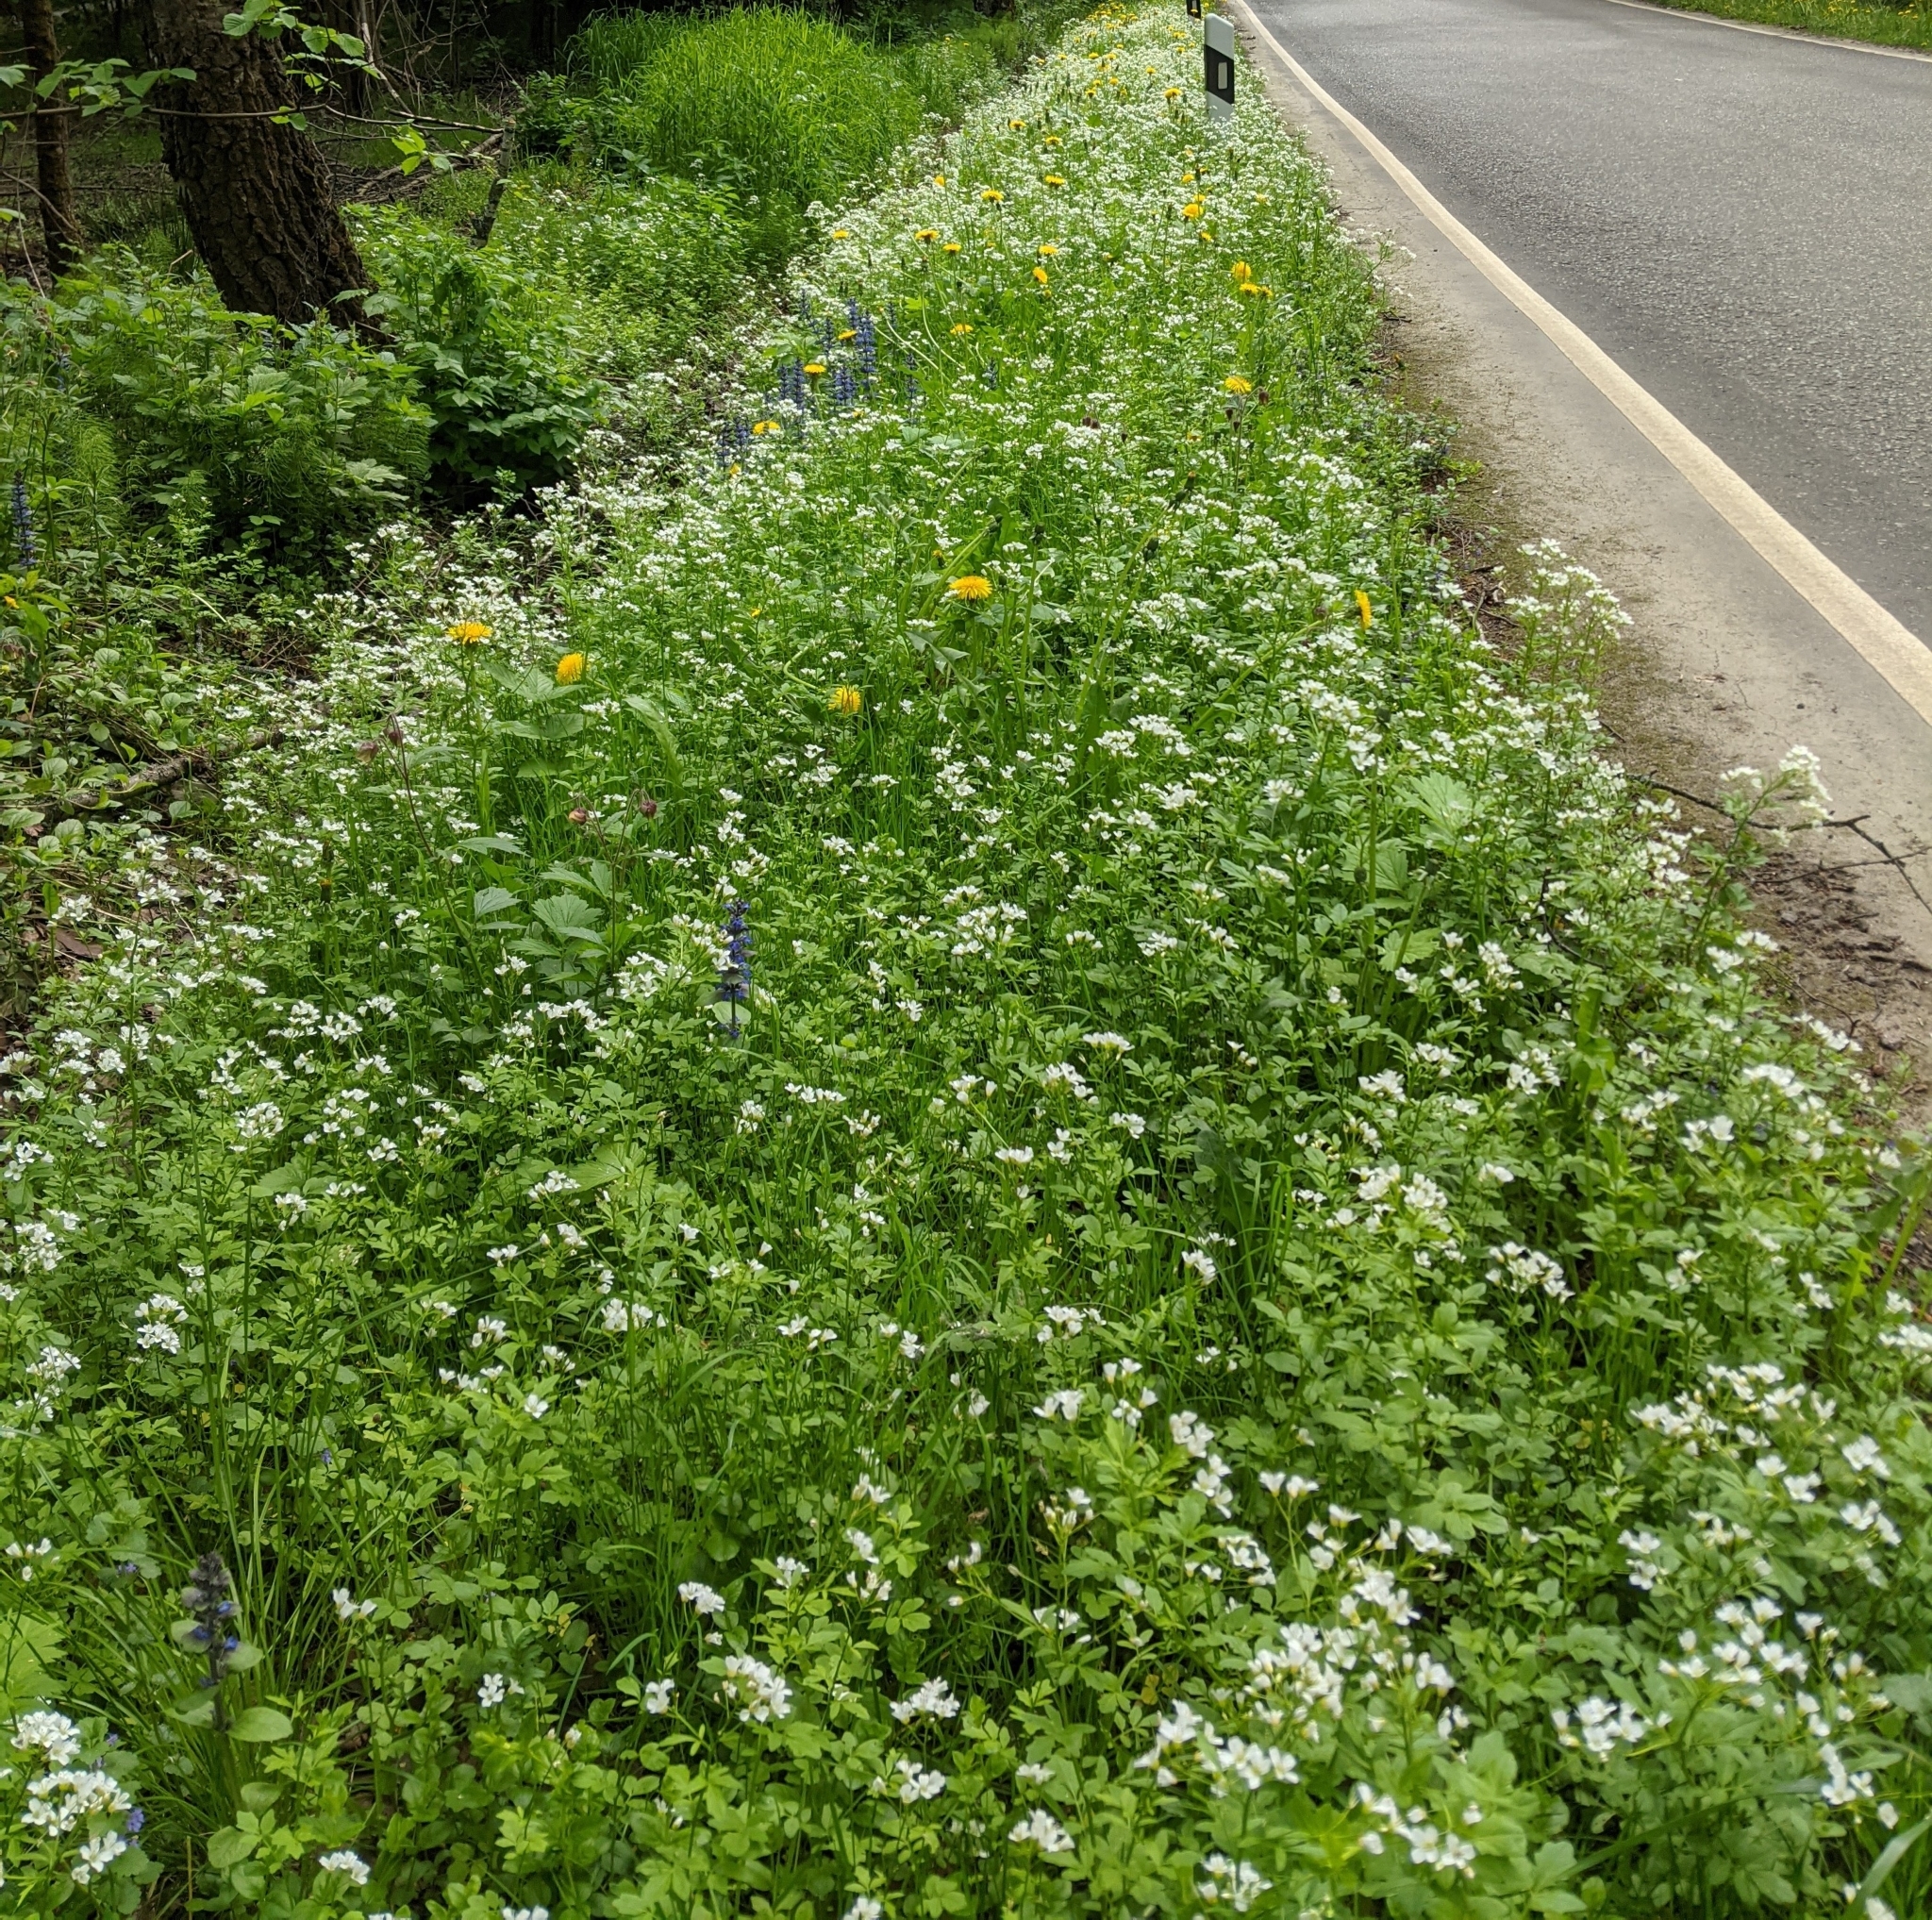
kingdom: Plantae
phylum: Tracheophyta
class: Magnoliopsida
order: Brassicales
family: Brassicaceae
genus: Cardamine
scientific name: Cardamine amara
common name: Large bitter-cress
